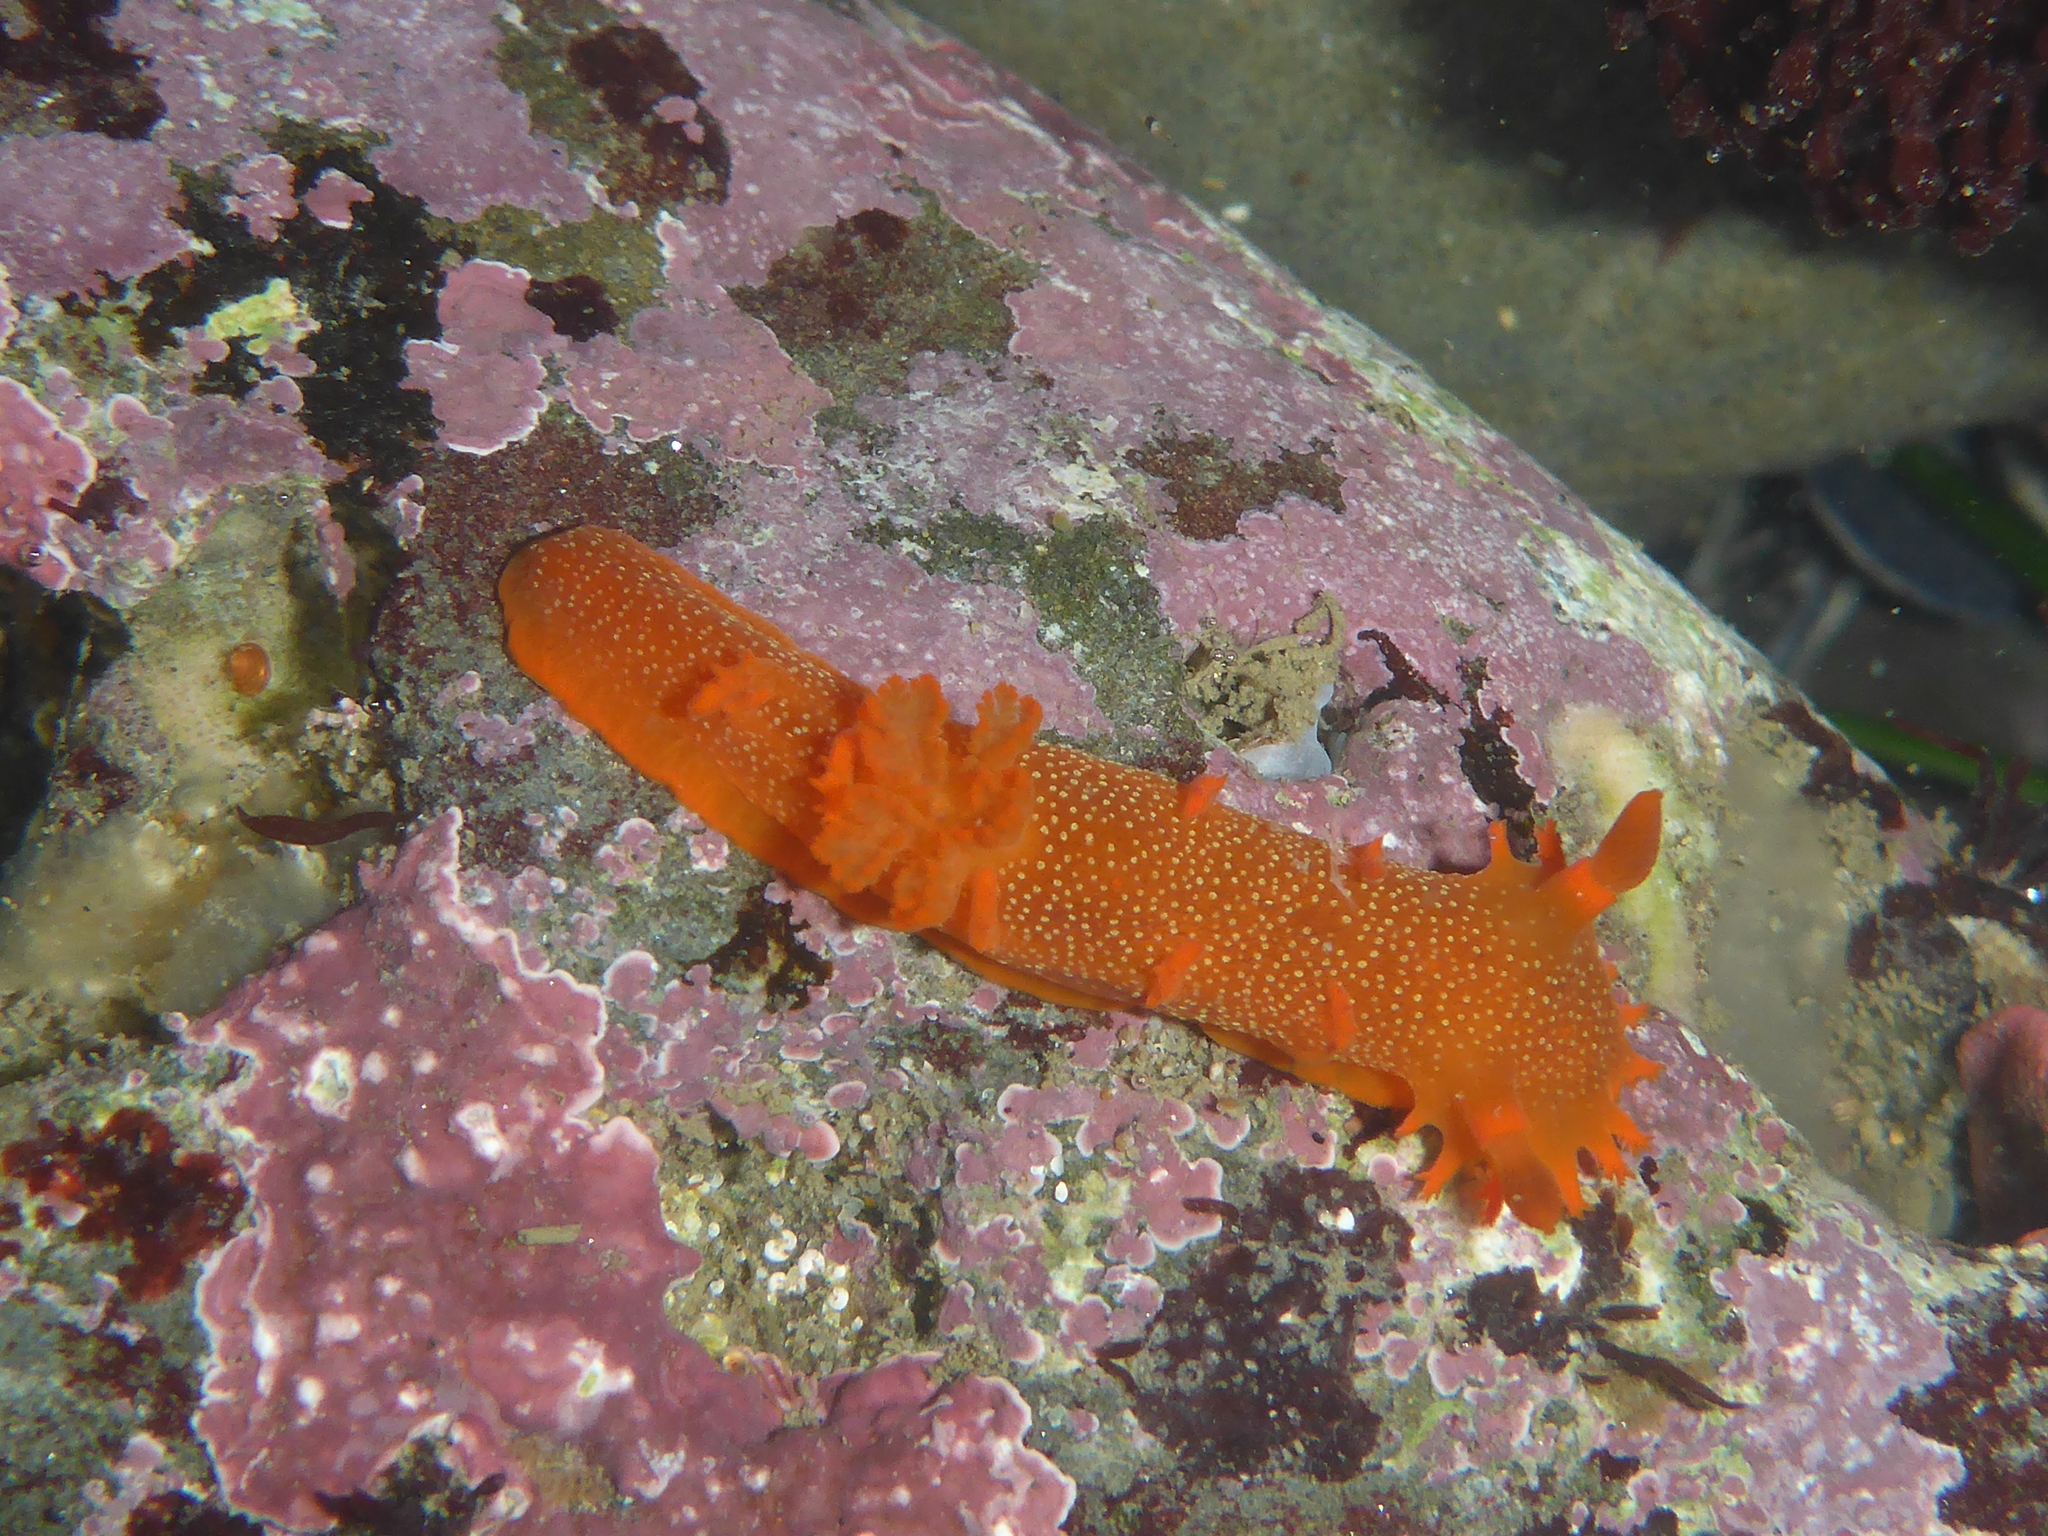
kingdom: Animalia
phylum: Mollusca
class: Gastropoda
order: Nudibranchia
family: Polyceridae
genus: Triopha
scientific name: Triopha maculata
